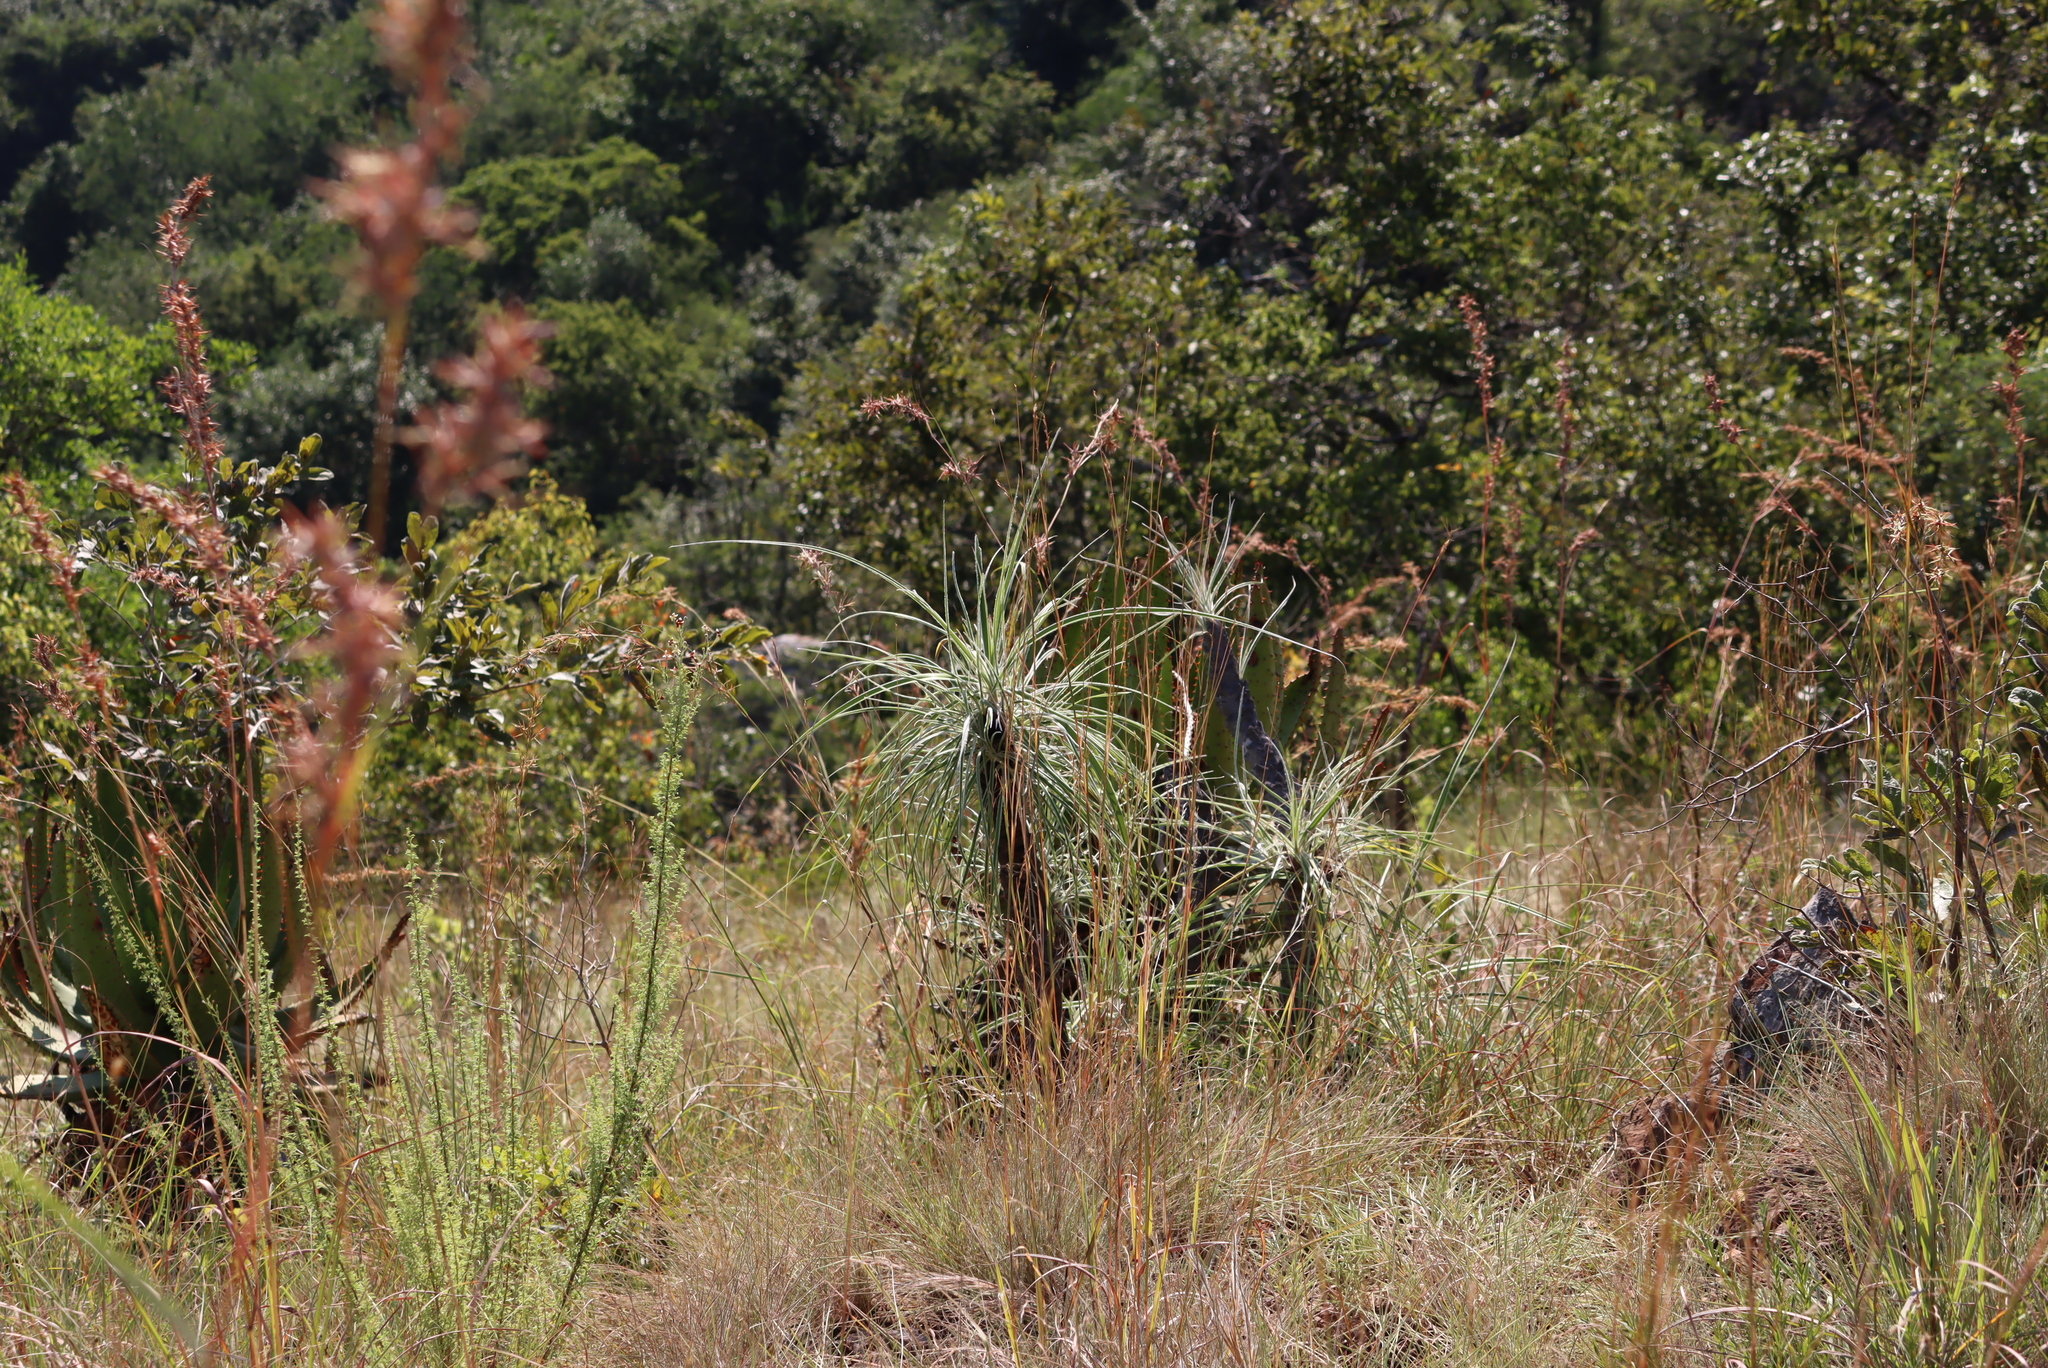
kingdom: Plantae
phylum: Tracheophyta
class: Liliopsida
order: Pandanales
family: Velloziaceae
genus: Xerophyta
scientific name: Xerophyta retinervis
